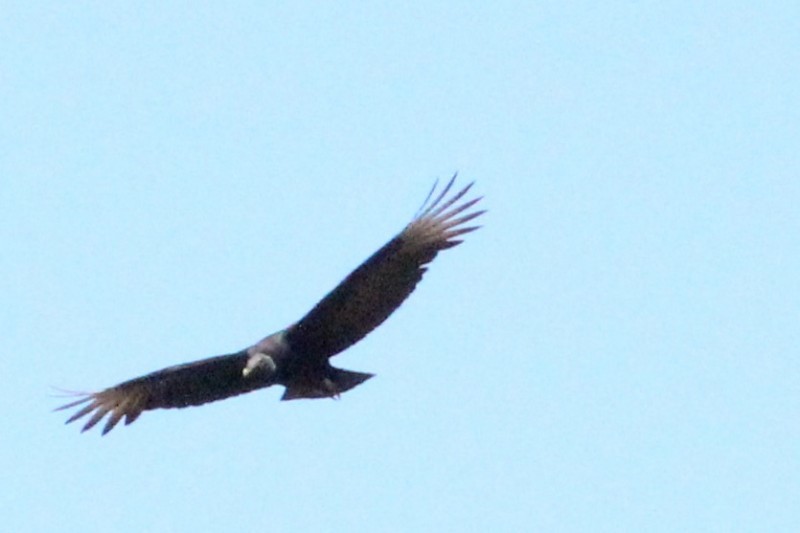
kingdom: Animalia
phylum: Chordata
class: Aves
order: Accipitriformes
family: Cathartidae
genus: Coragyps
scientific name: Coragyps atratus
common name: Black vulture
